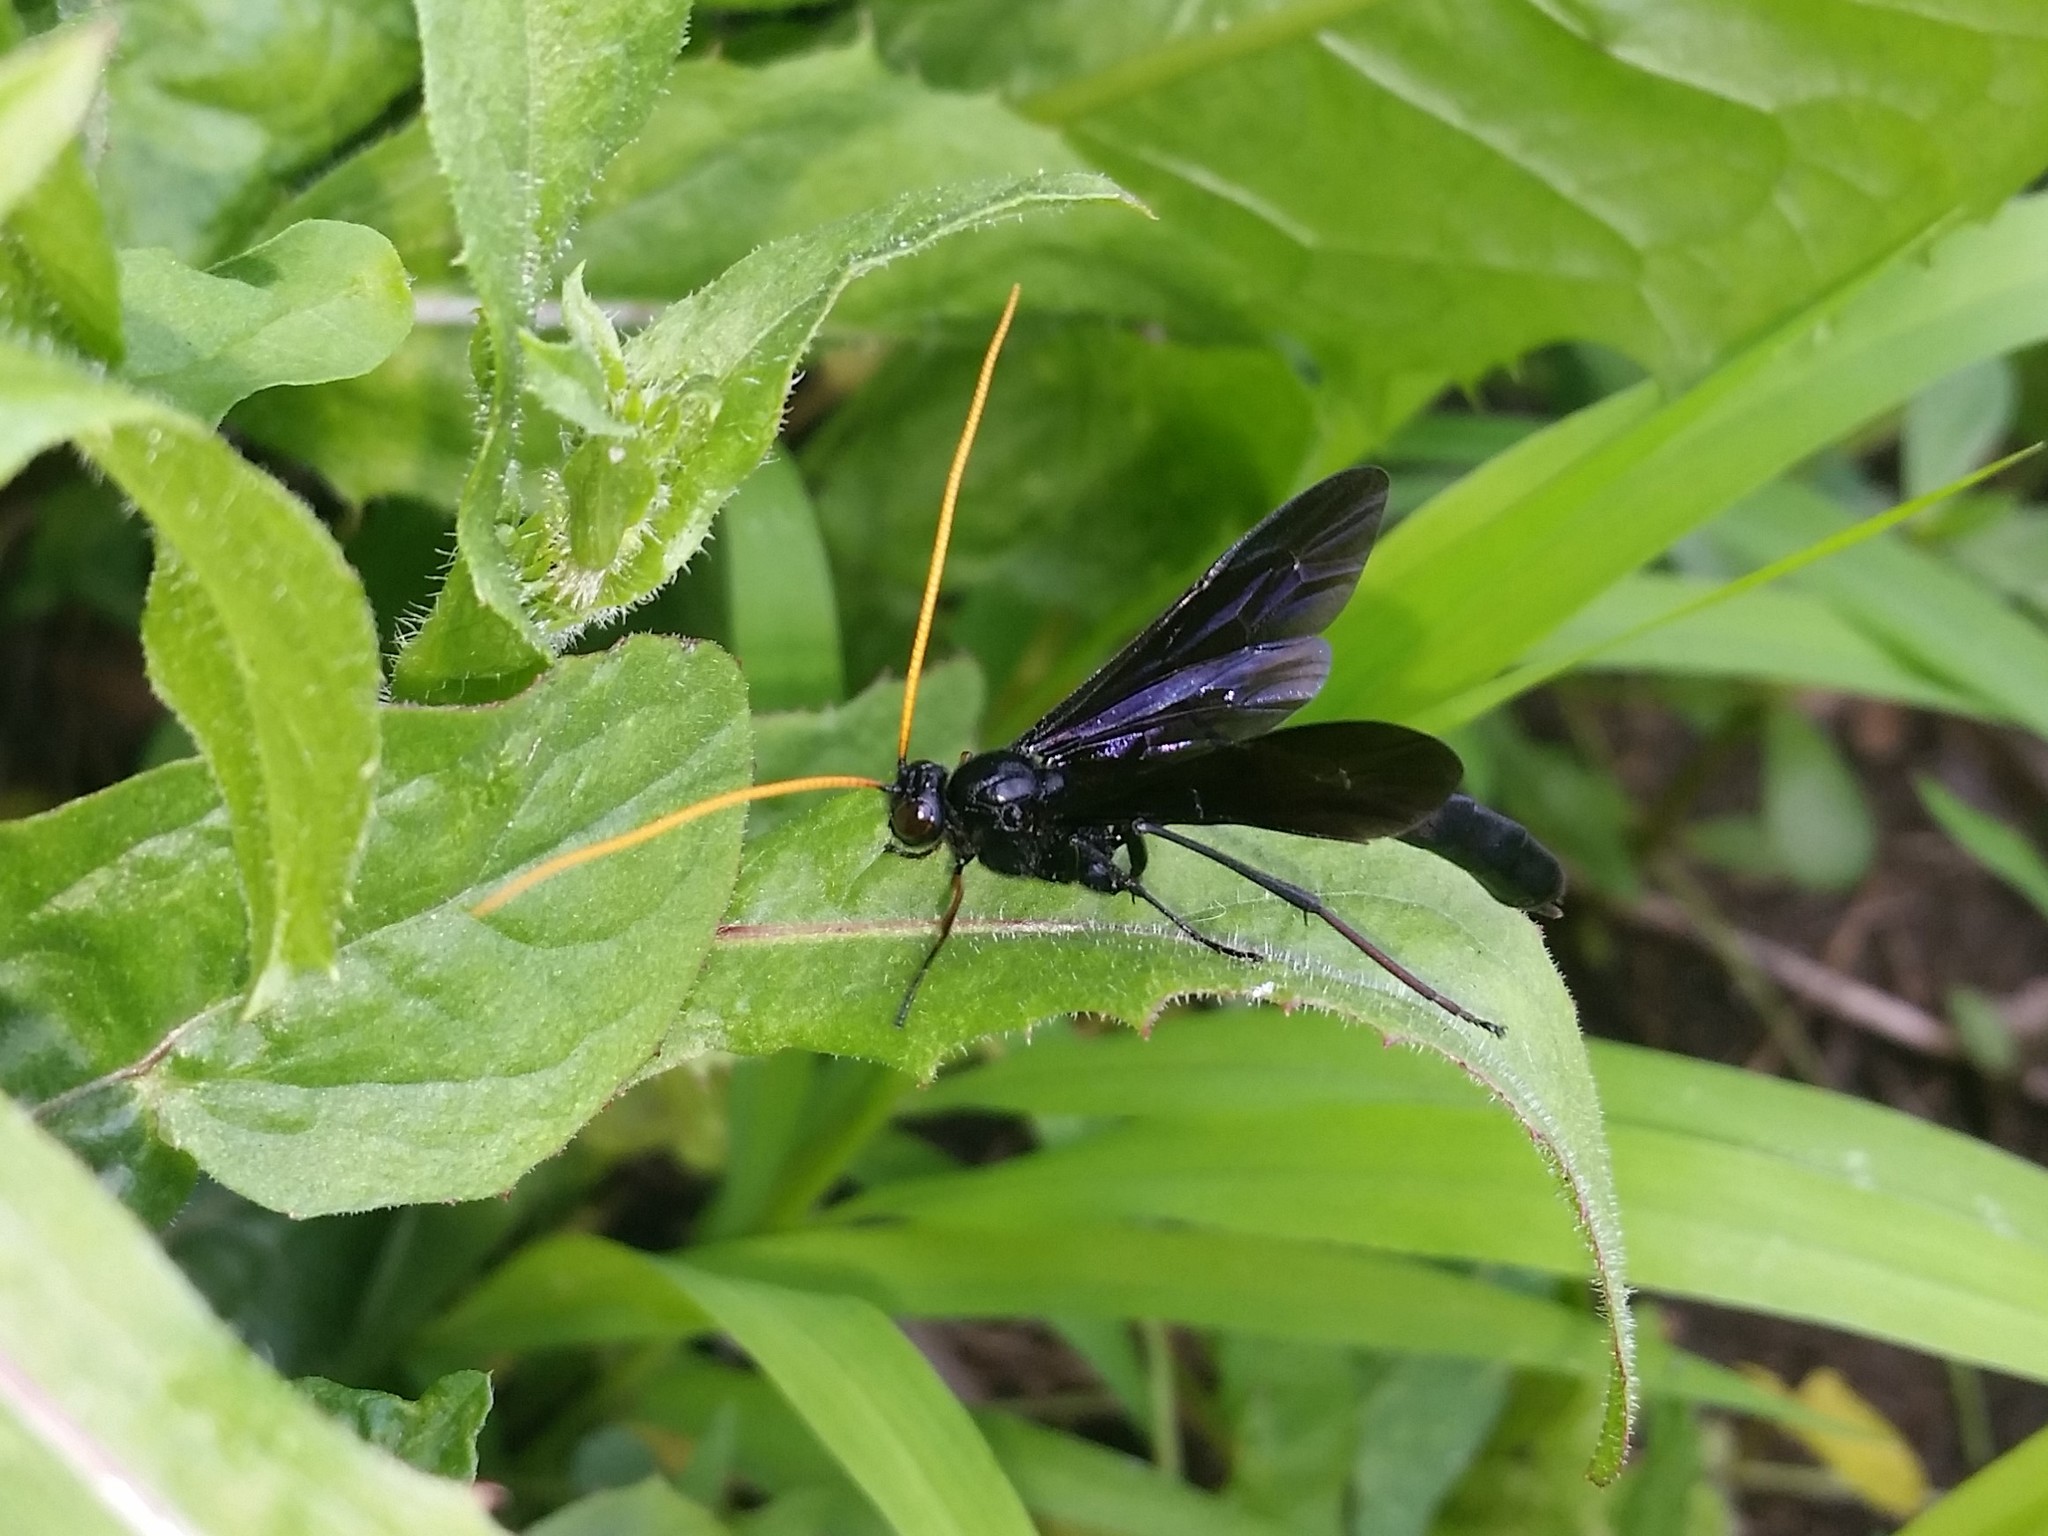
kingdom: Animalia
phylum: Arthropoda
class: Insecta
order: Hymenoptera
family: Ichneumonidae
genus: Heteropelma
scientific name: Heteropelma datanae
